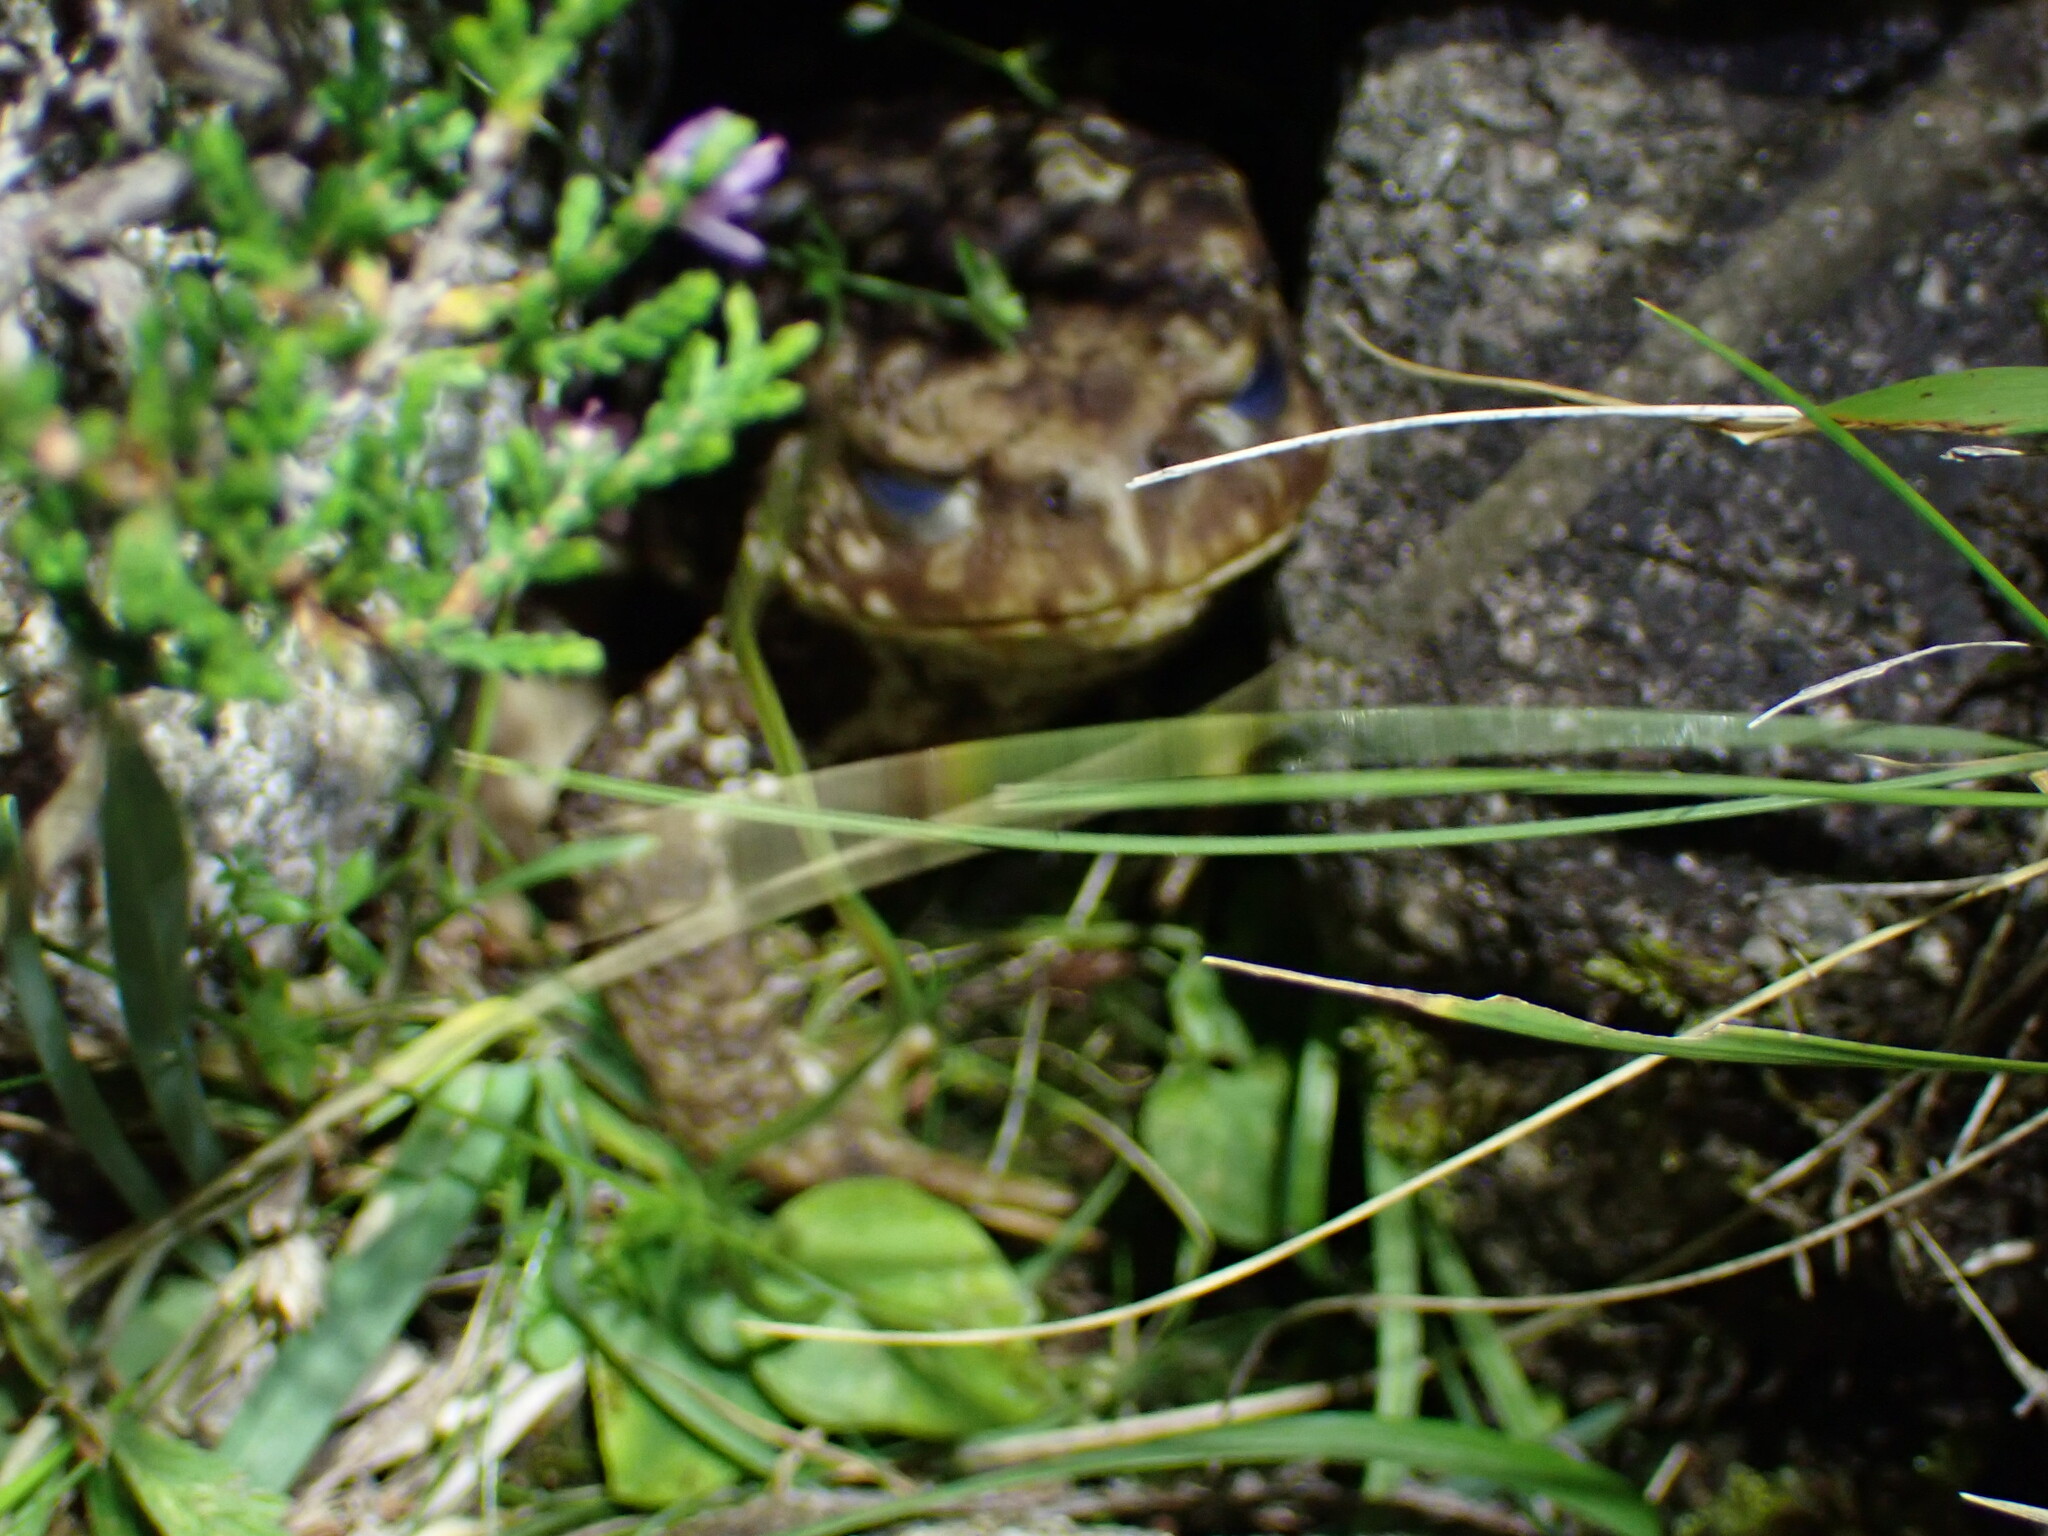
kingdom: Animalia
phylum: Chordata
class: Amphibia
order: Anura
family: Bufonidae
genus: Bufo
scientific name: Bufo spinosus
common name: Western common toad
